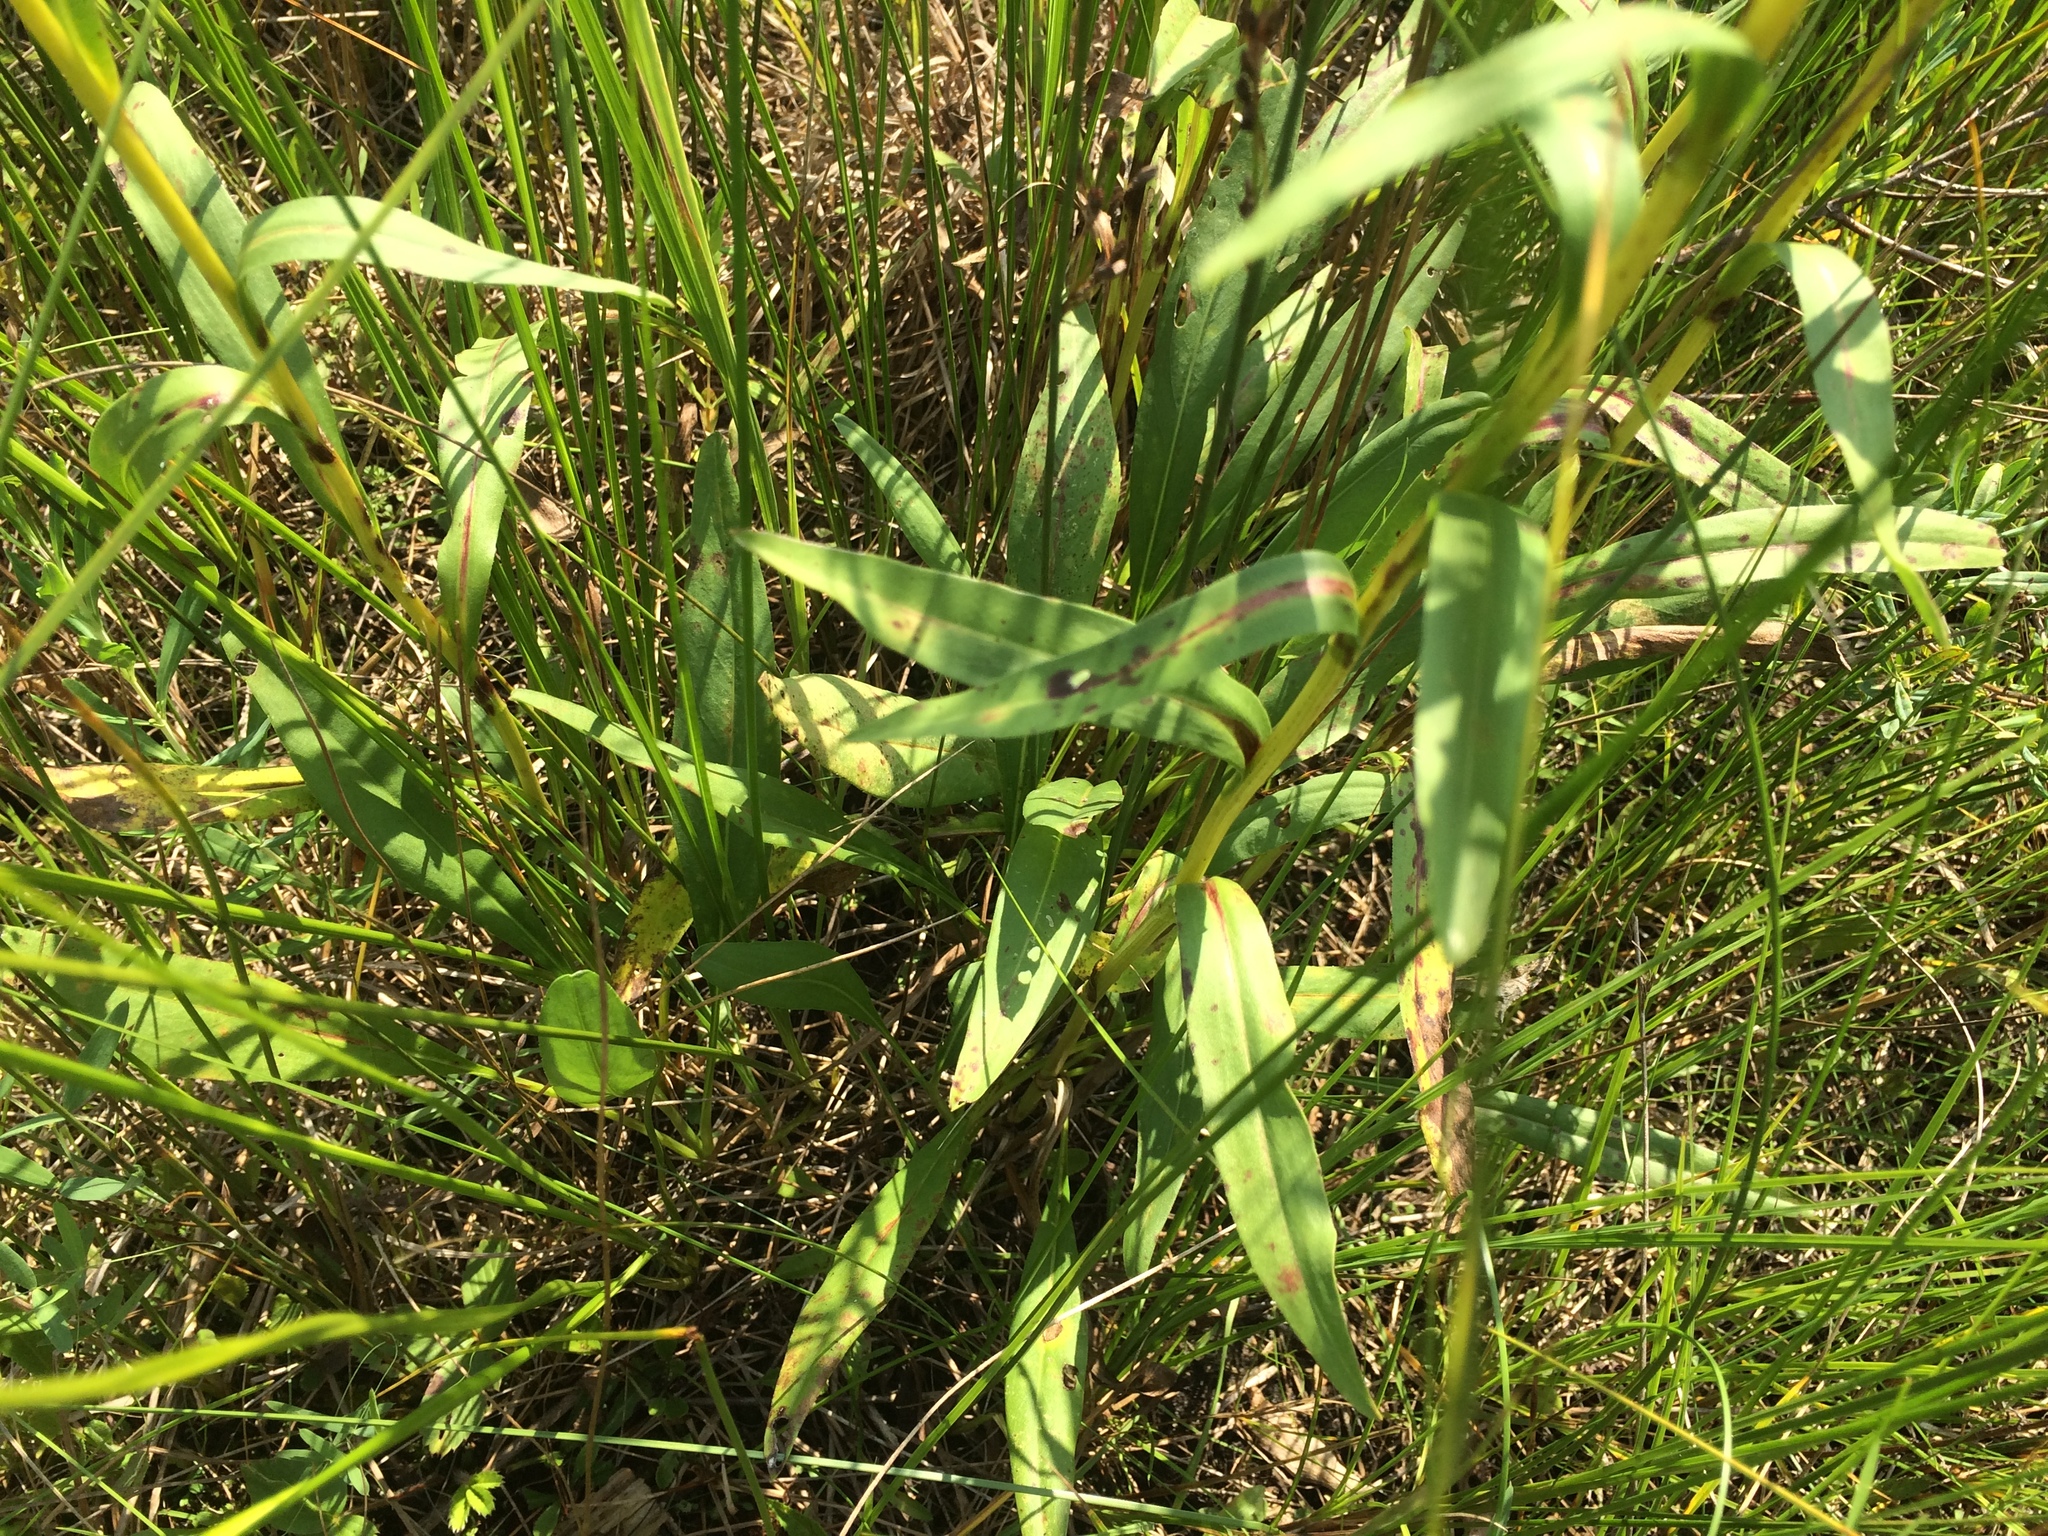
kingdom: Plantae
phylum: Tracheophyta
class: Magnoliopsida
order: Asterales
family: Asteraceae
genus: Solidago
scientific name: Solidago ohioensis
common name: Ohio goldenrod
